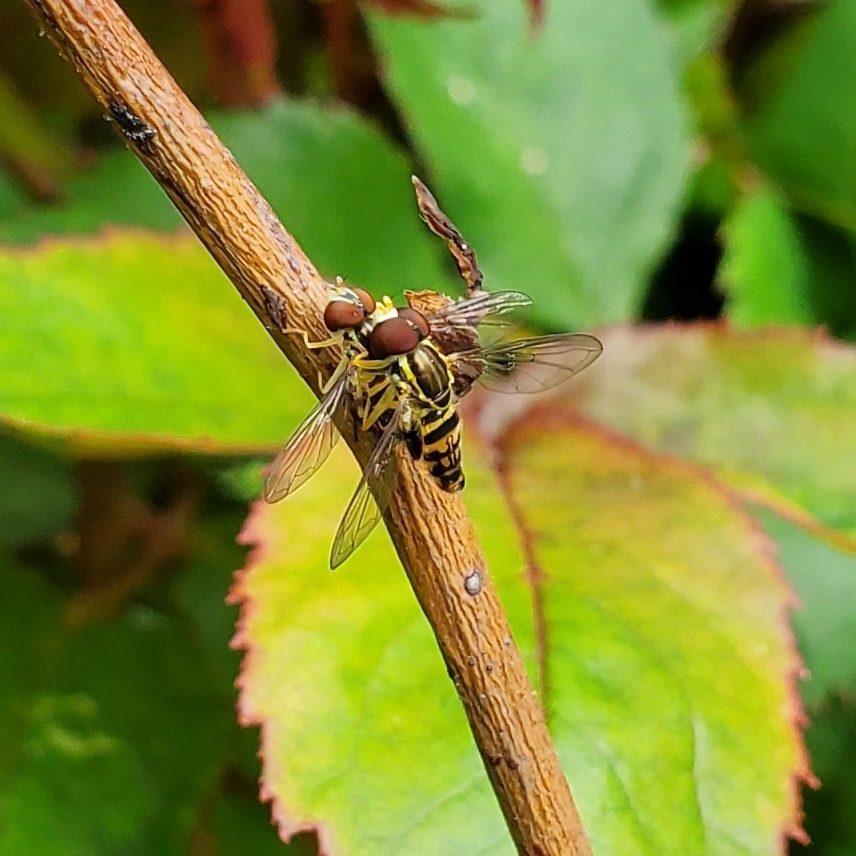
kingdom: Animalia
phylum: Arthropoda
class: Insecta
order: Diptera
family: Syrphidae
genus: Toxomerus
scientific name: Toxomerus geminatus
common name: Eastern calligrapher
